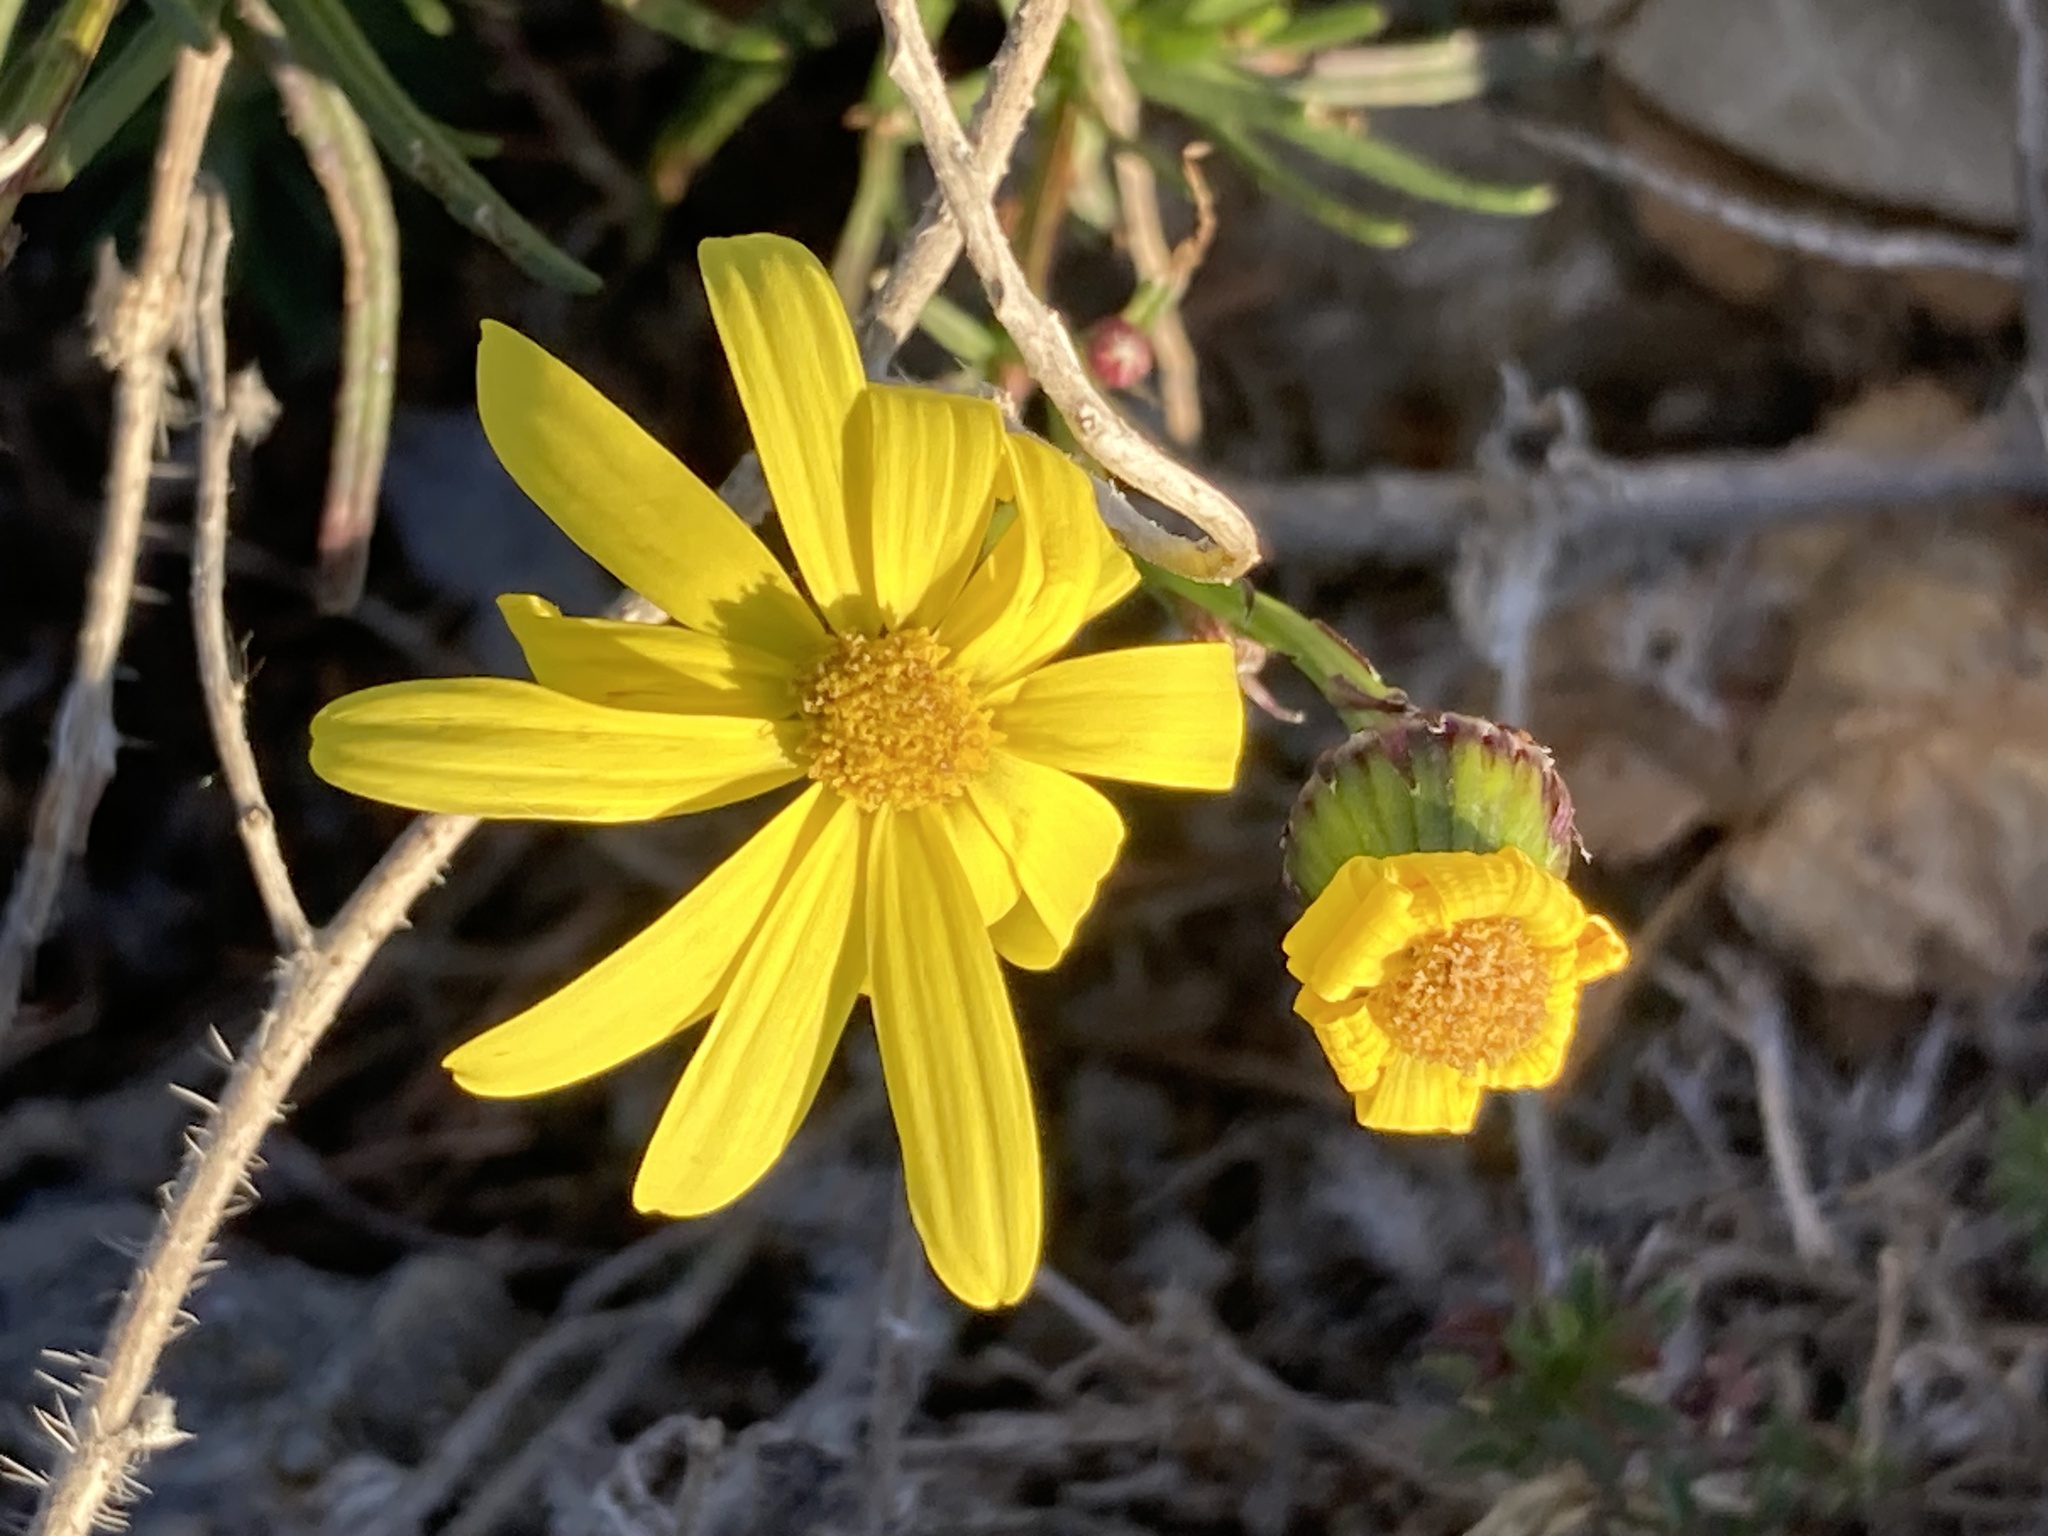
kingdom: Plantae
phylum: Tracheophyta
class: Magnoliopsida
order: Asterales
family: Asteraceae
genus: Senecio
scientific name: Senecio inaequidens
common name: Narrow-leaved ragwort
